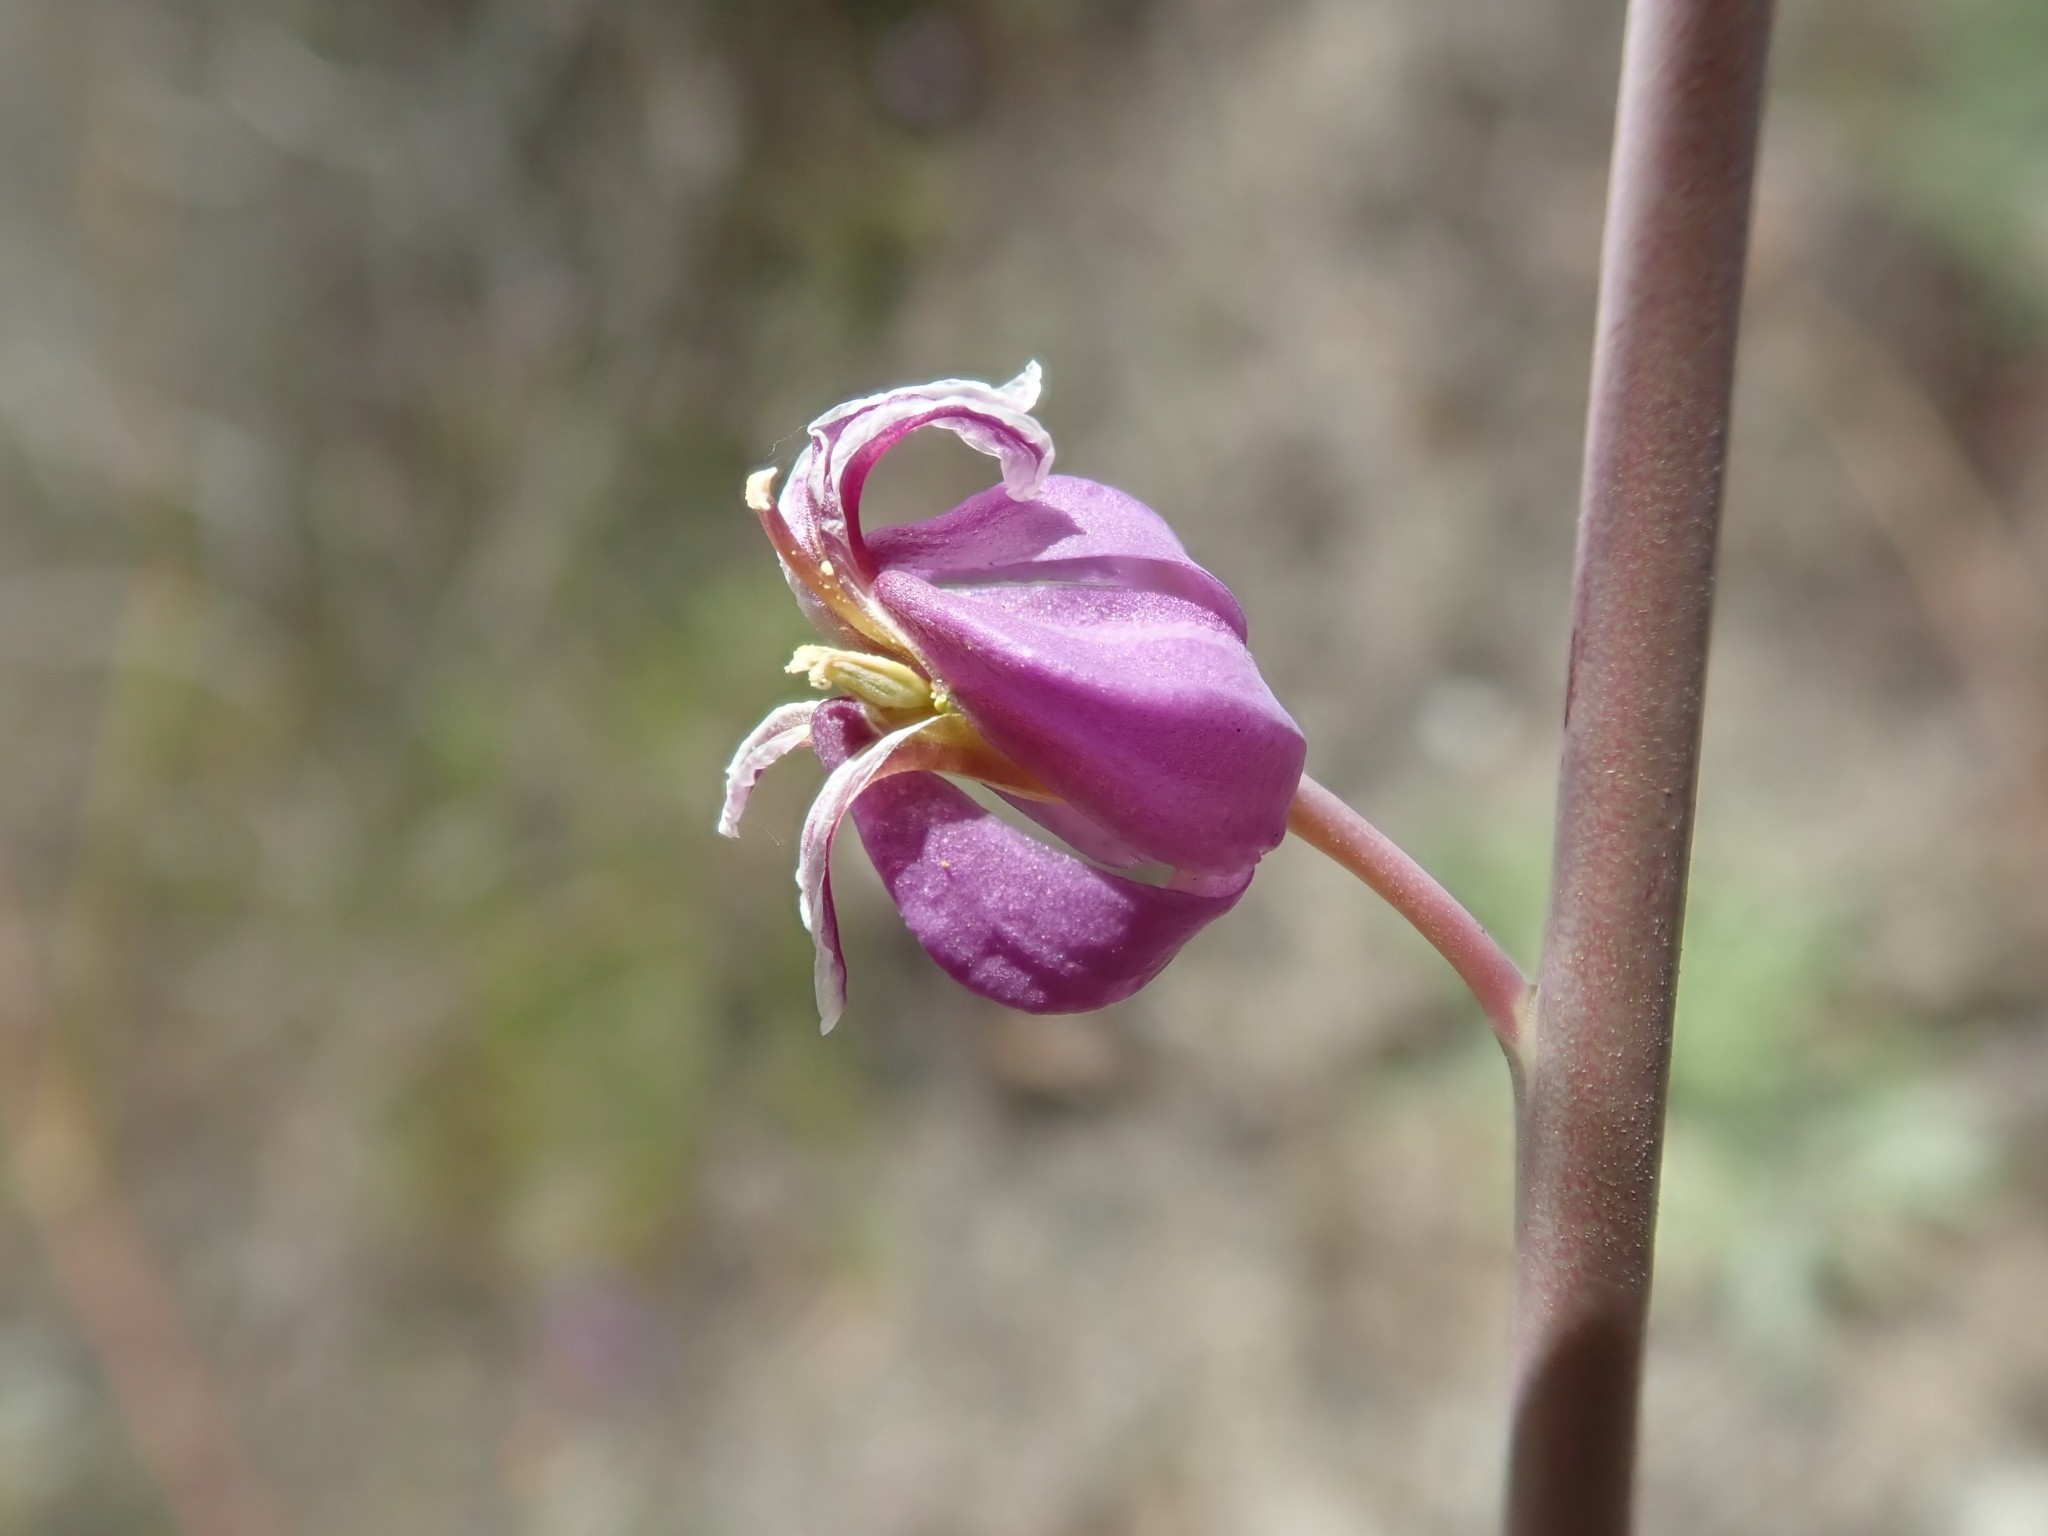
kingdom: Plantae
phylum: Tracheophyta
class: Magnoliopsida
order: Brassicales
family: Brassicaceae
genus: Streptanthus
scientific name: Streptanthus glandulosus
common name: Jewel-flower
